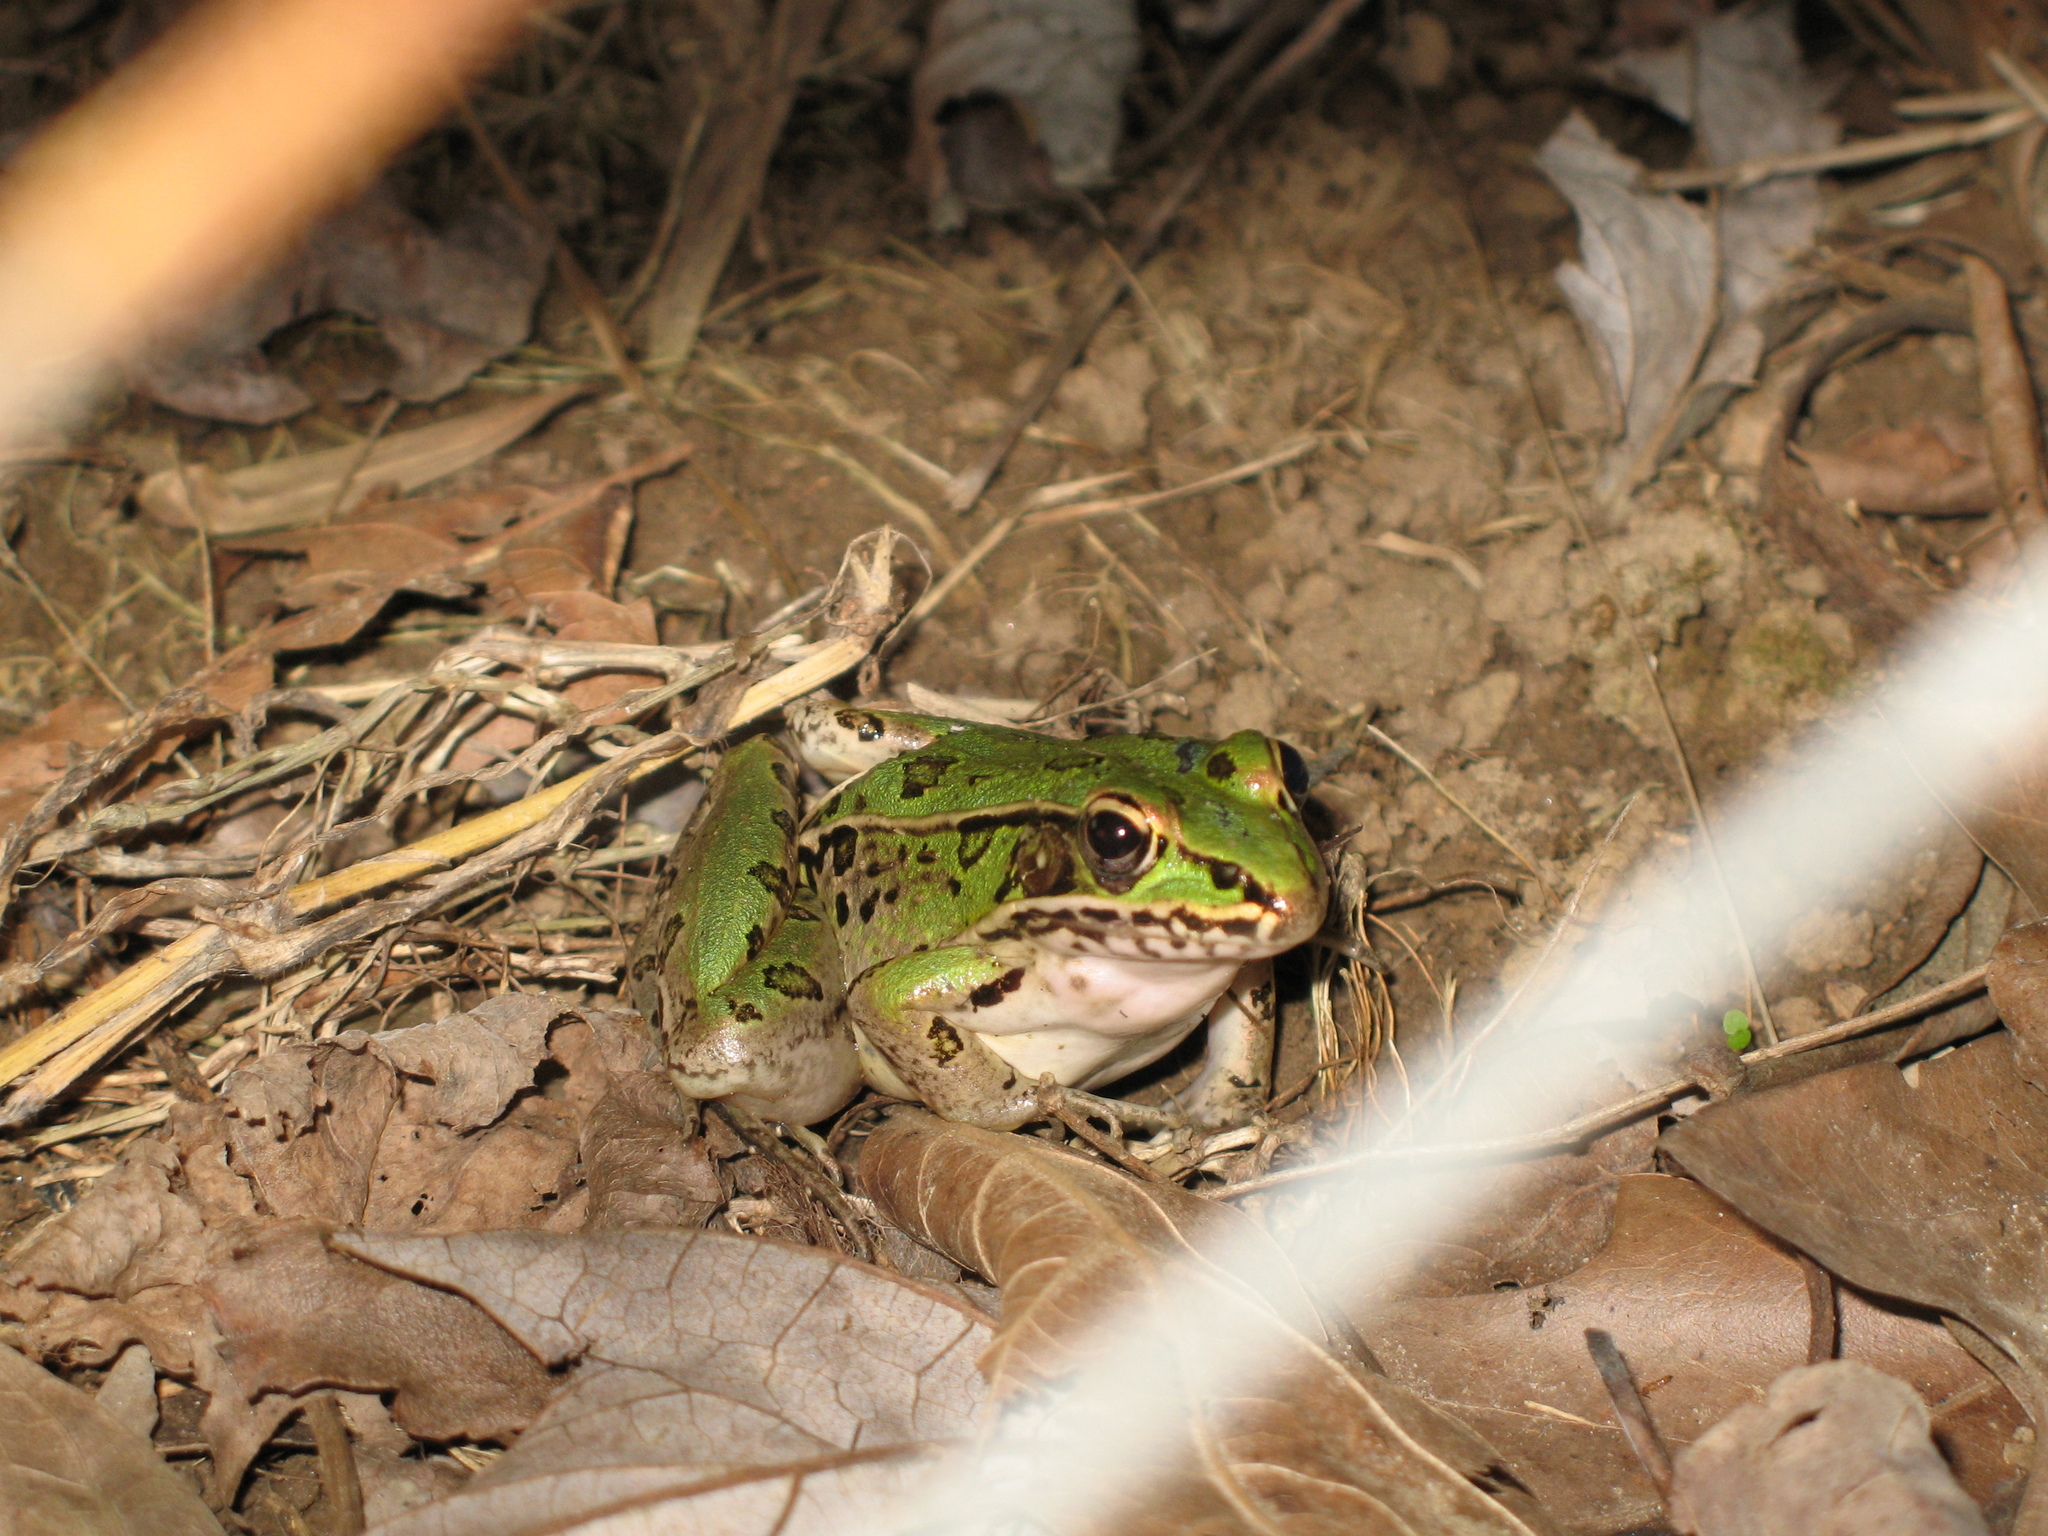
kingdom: Animalia
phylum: Chordata
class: Amphibia
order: Anura
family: Ranidae
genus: Lithobates
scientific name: Lithobates sphenocephalus
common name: Southern leopard frog
